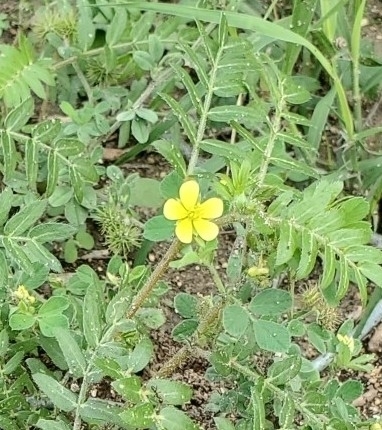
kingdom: Plantae
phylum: Tracheophyta
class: Magnoliopsida
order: Zygophyllales
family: Zygophyllaceae
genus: Tribulus
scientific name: Tribulus terrestris
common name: Puncturevine
